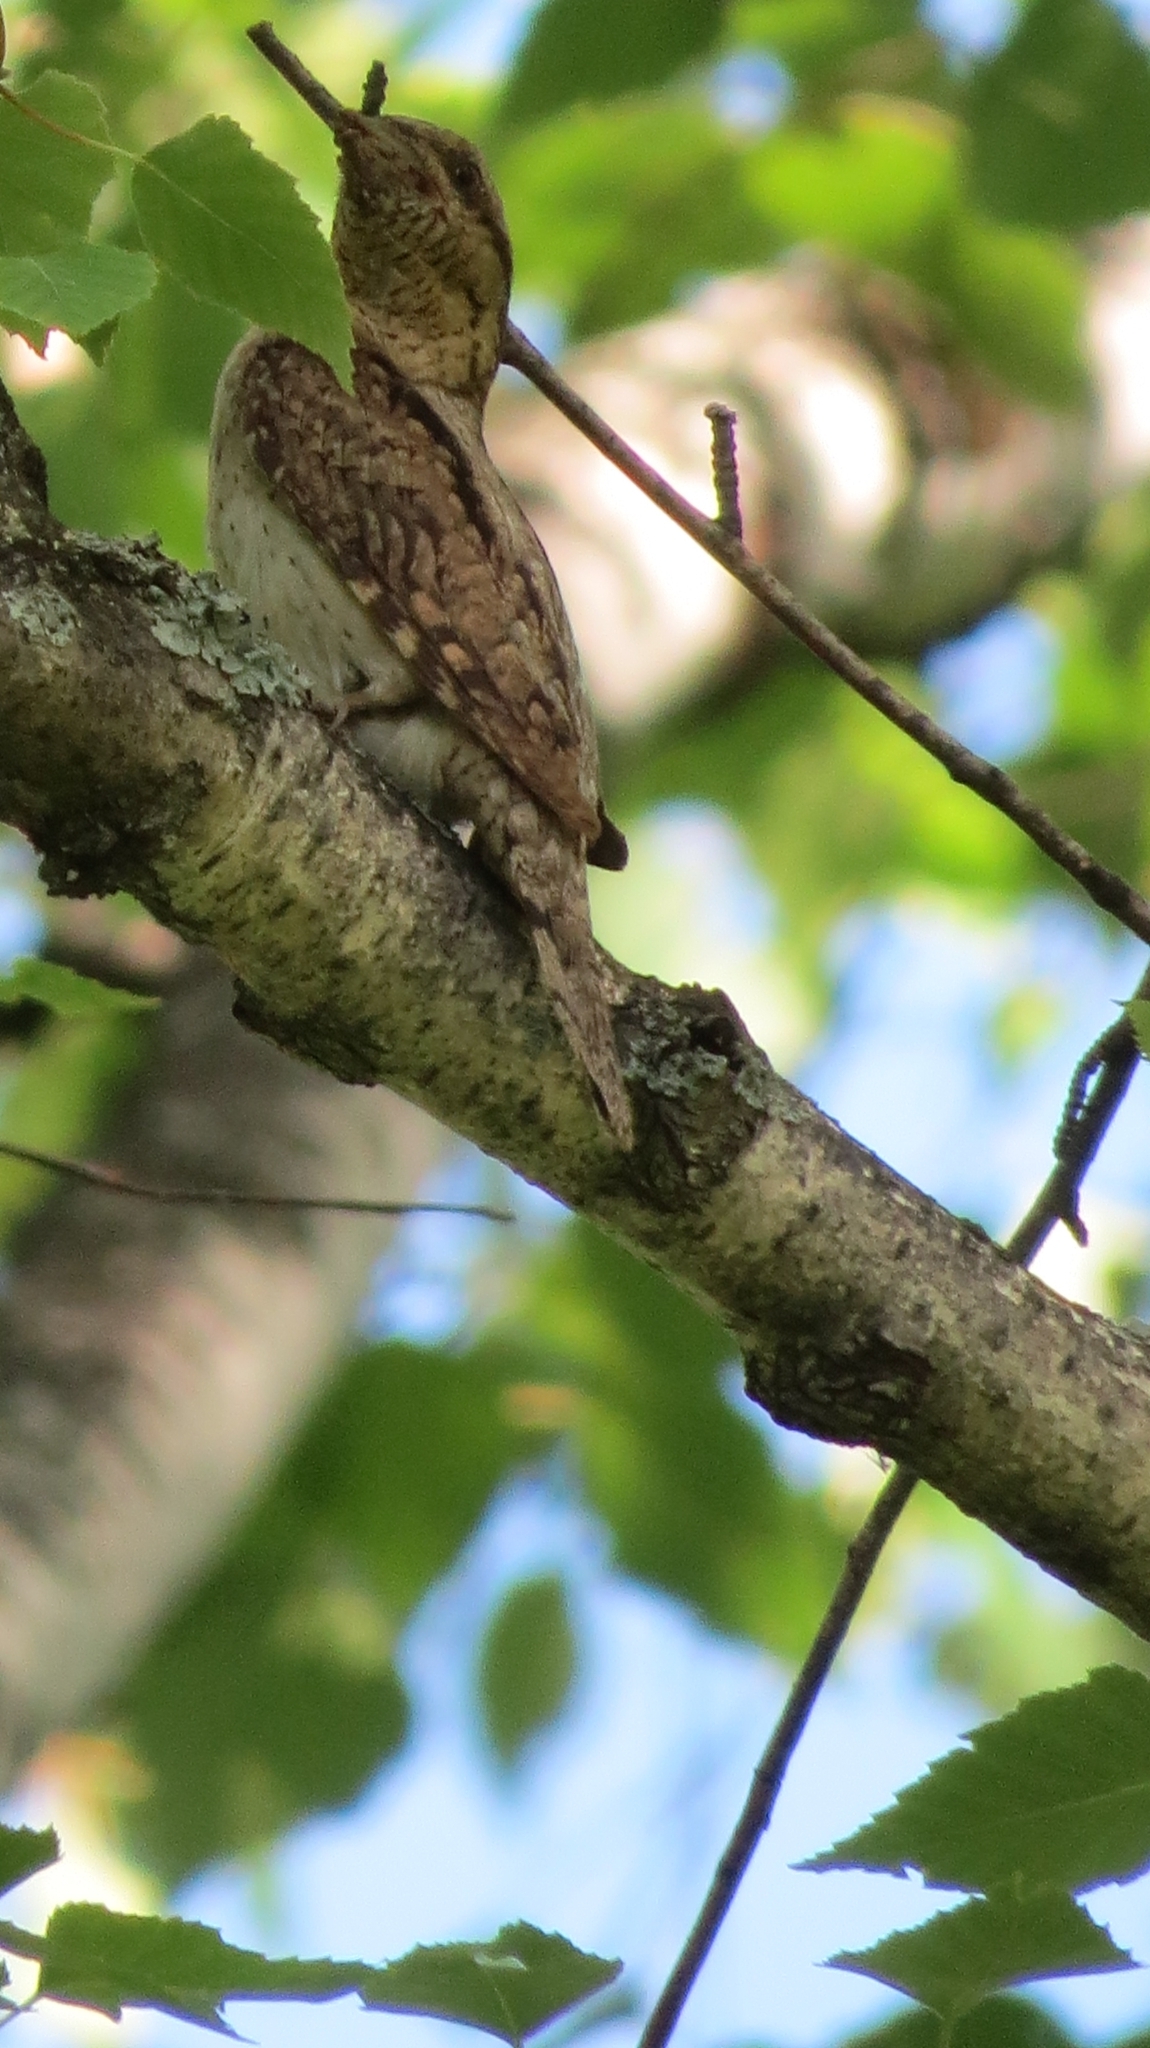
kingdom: Animalia
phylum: Chordata
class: Aves
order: Piciformes
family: Picidae
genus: Jynx
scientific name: Jynx torquilla
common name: Eurasian wryneck
